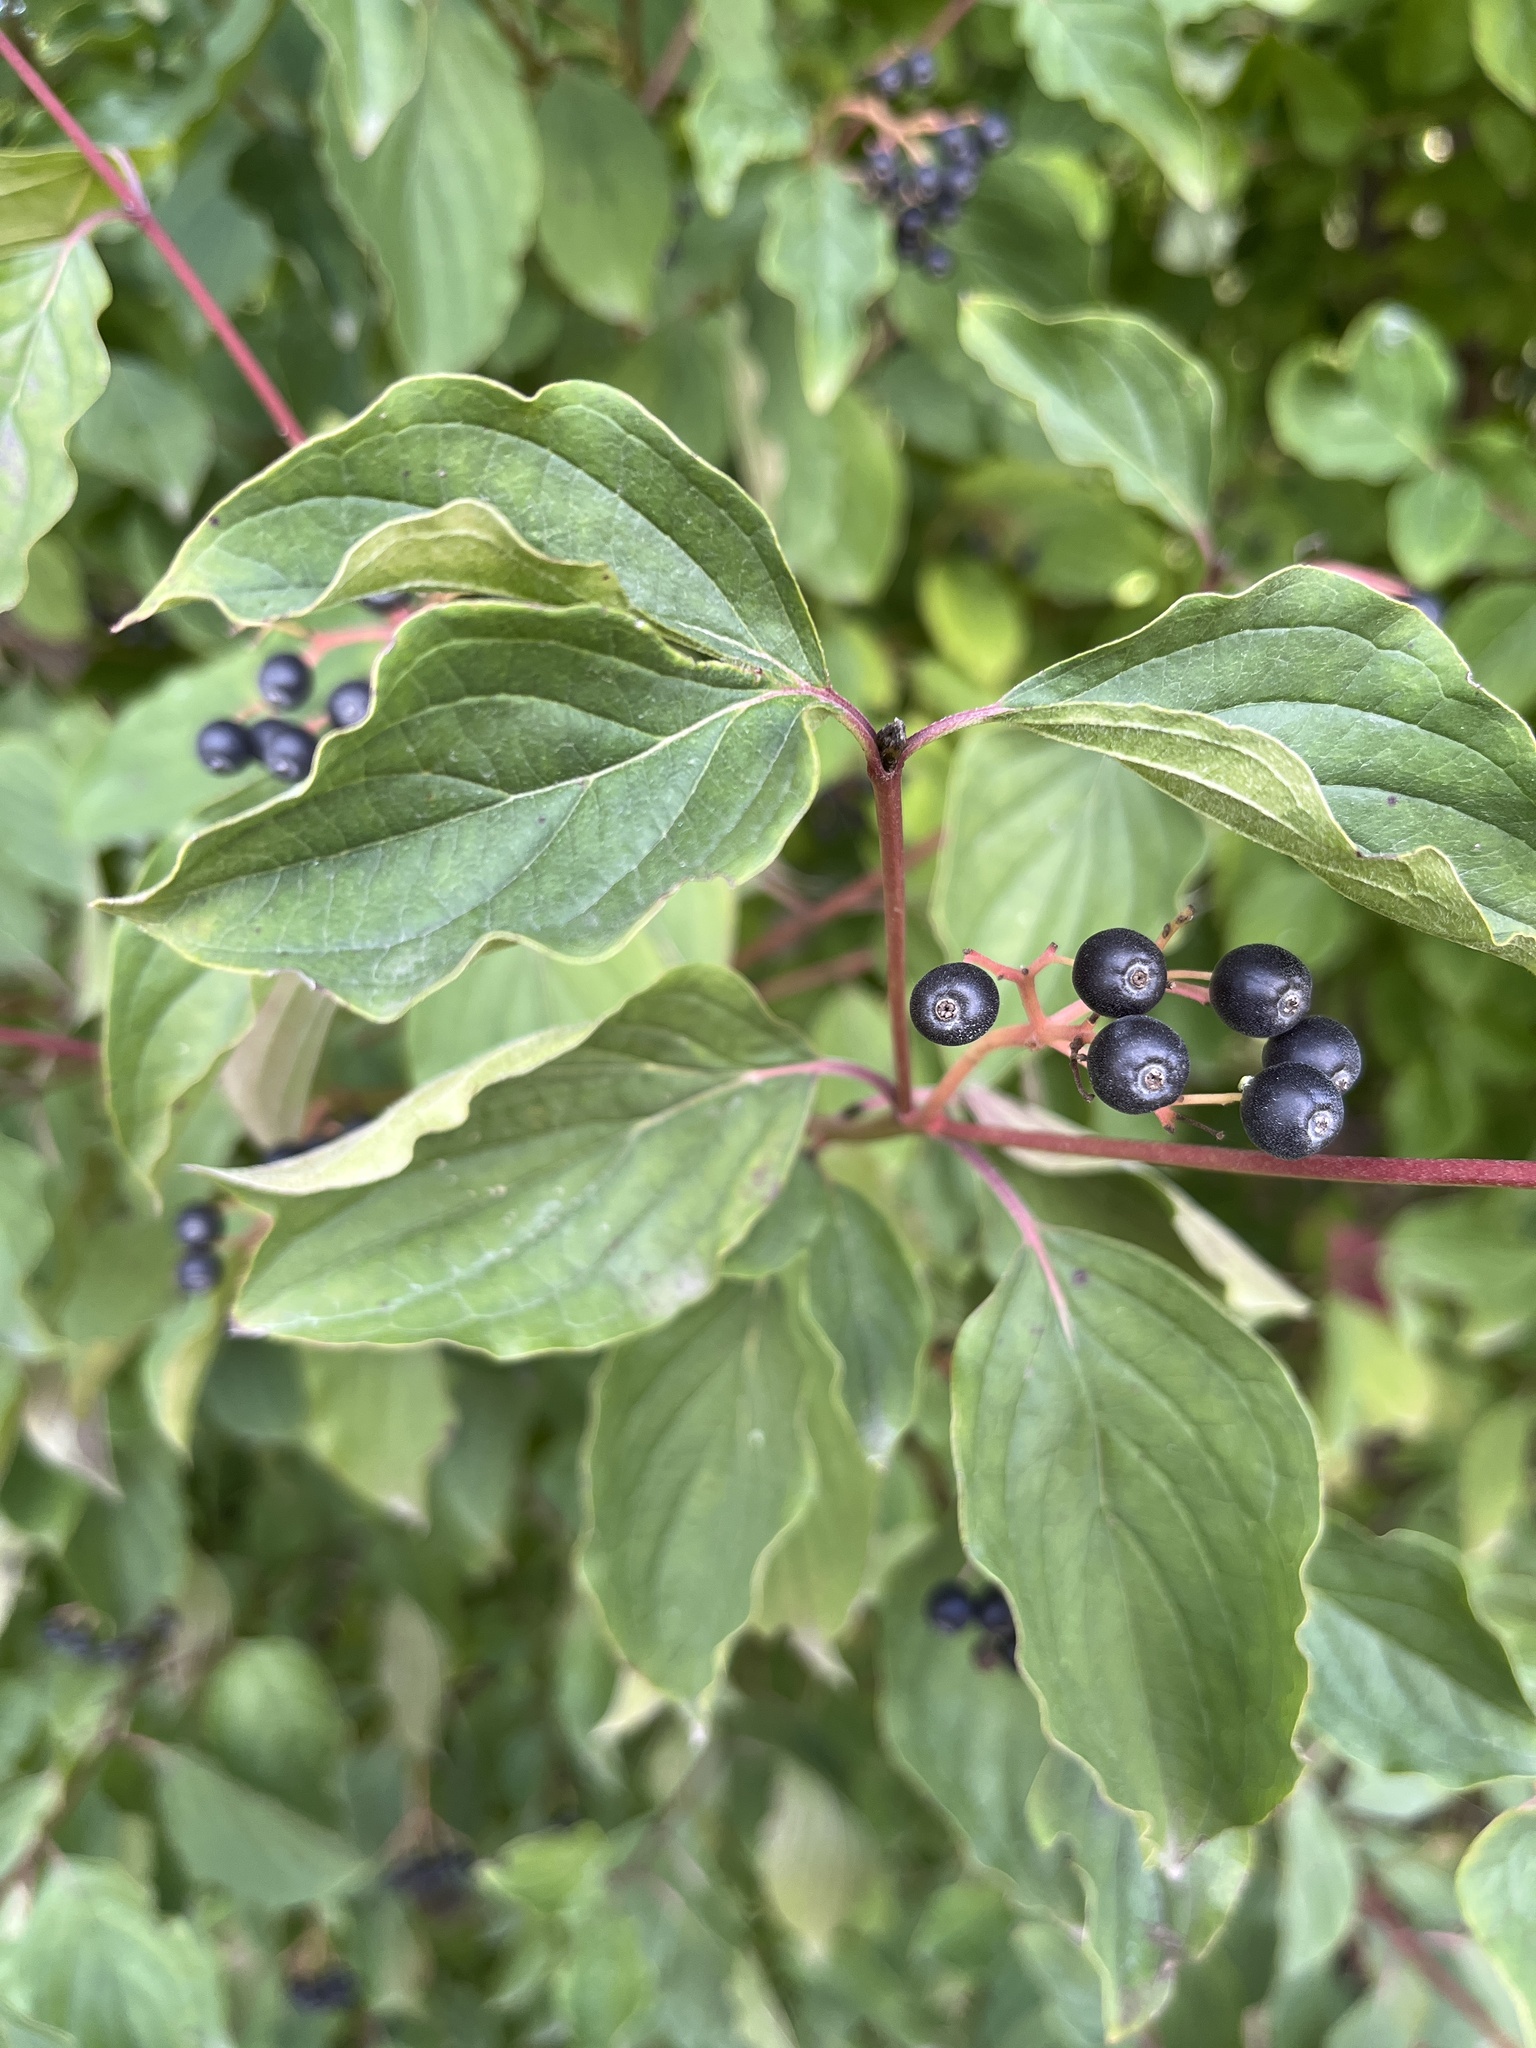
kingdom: Plantae
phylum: Tracheophyta
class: Magnoliopsida
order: Cornales
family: Cornaceae
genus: Cornus
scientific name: Cornus sanguinea
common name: Dogwood
